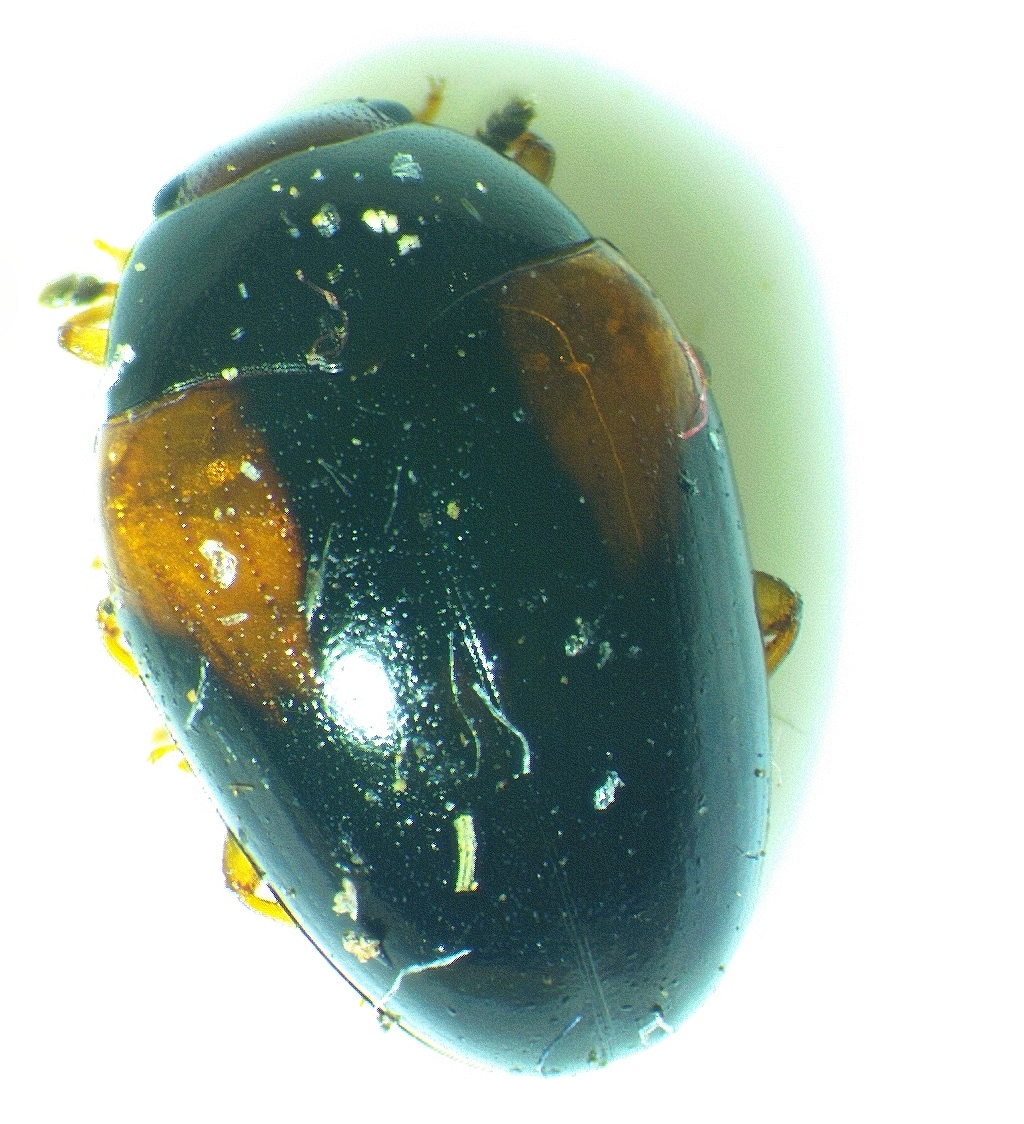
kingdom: Animalia
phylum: Arthropoda
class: Insecta
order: Coleoptera
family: Erotylidae
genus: Tritoma
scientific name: Tritoma humeralis
